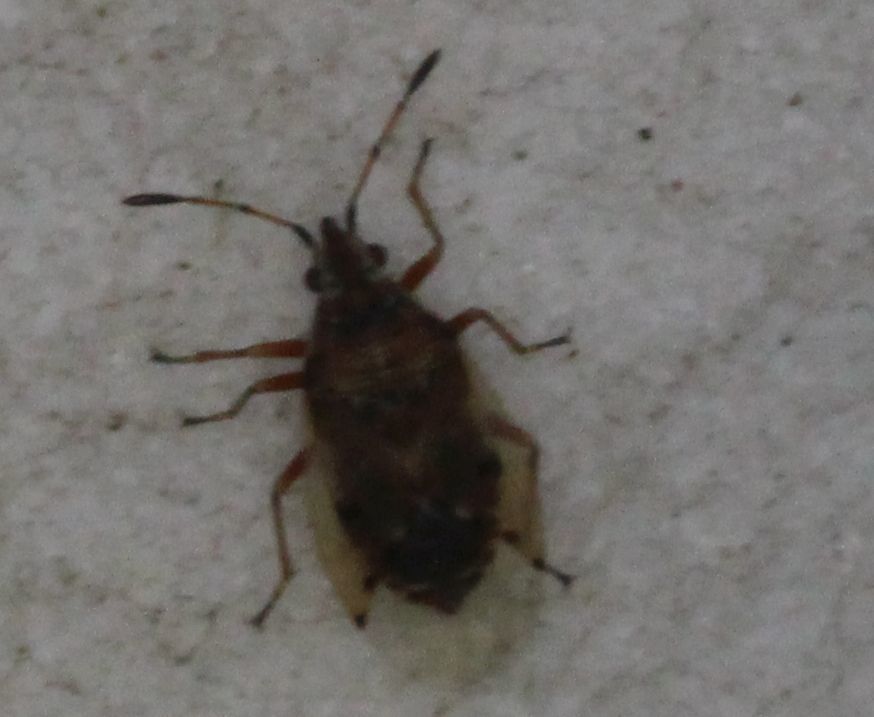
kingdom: Animalia
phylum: Arthropoda
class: Insecta
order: Hemiptera
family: Lygaeidae
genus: Kleidocerys
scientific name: Kleidocerys resedae
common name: Birch catkin bug
